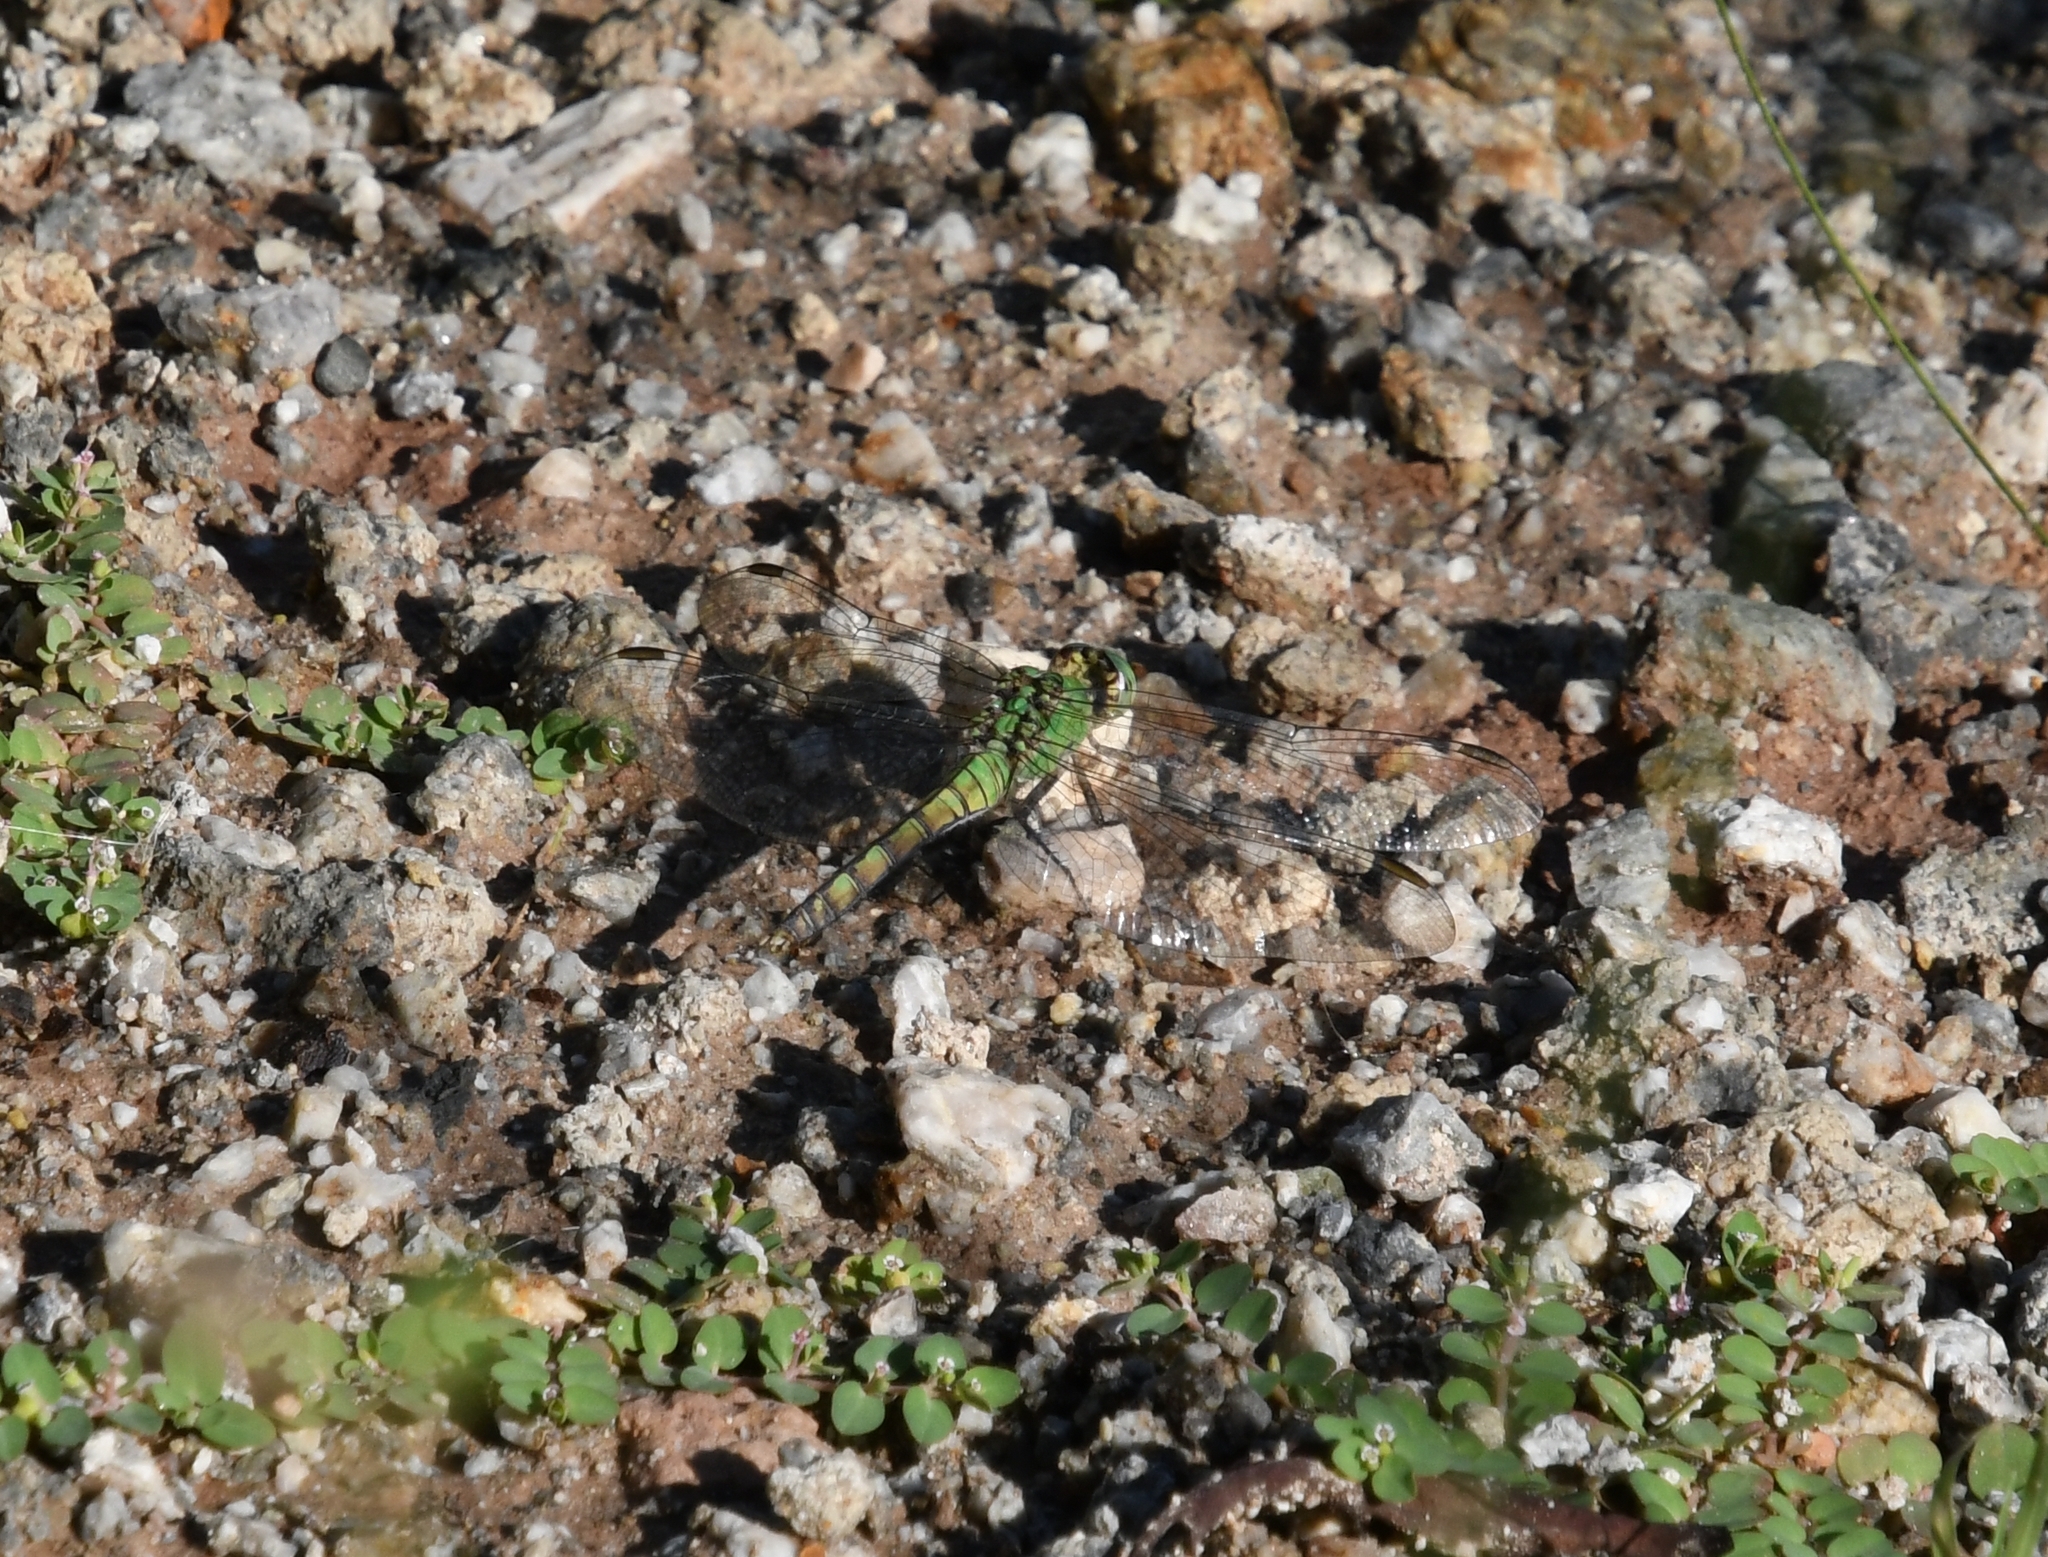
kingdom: Animalia
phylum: Arthropoda
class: Insecta
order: Odonata
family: Libellulidae
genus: Erythemis
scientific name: Erythemis collocata
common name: Western pondhawk
